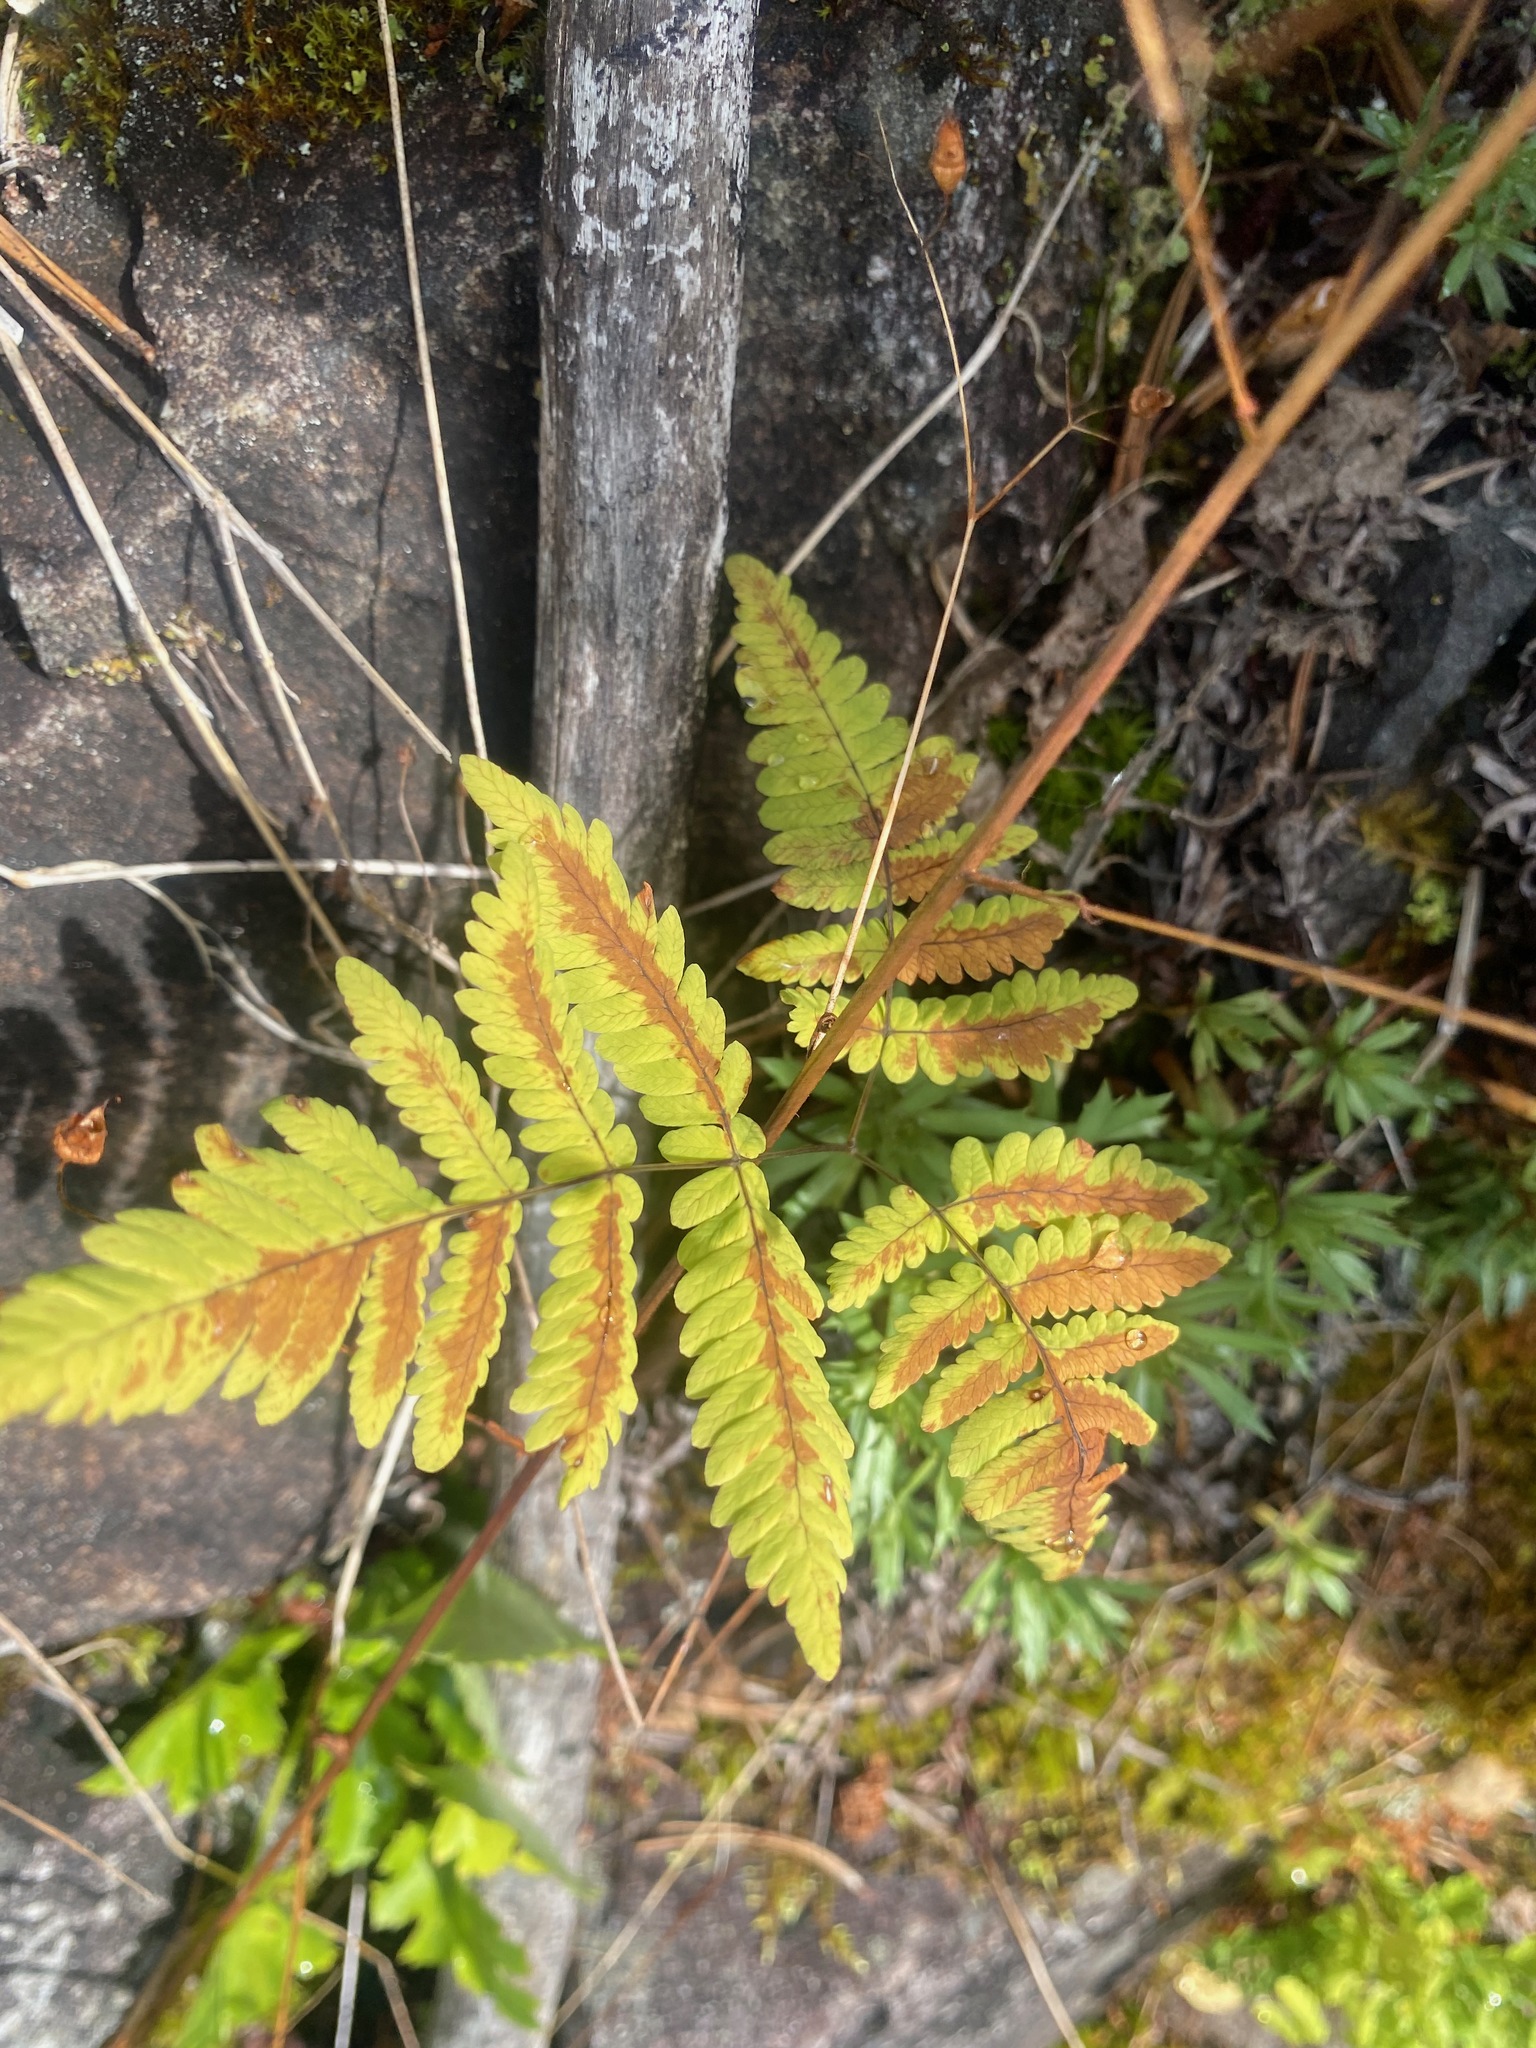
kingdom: Plantae
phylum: Tracheophyta
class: Polypodiopsida
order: Polypodiales
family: Cystopteridaceae
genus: Gymnocarpium
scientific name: Gymnocarpium dryopteris
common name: Oak fern
